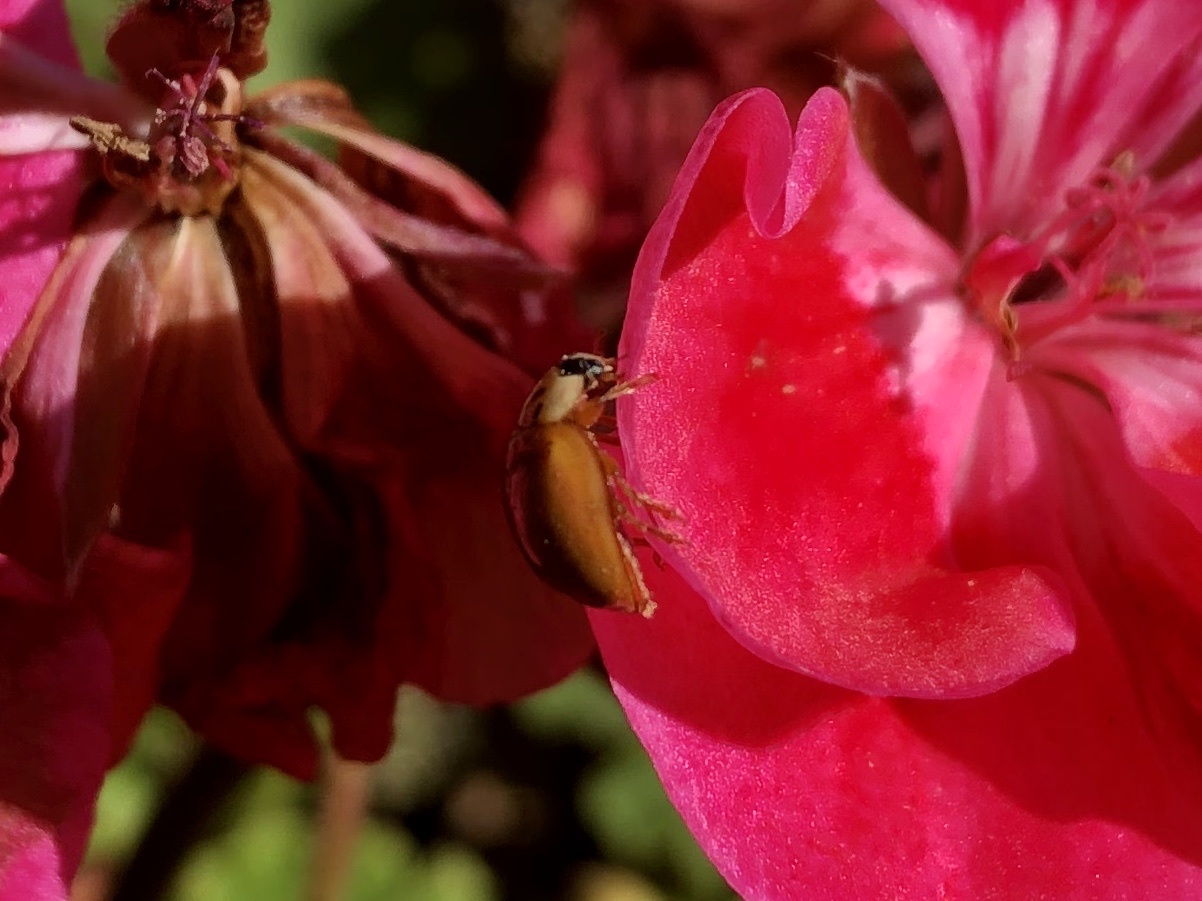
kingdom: Animalia
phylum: Arthropoda
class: Insecta
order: Coleoptera
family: Coccinellidae
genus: Harmonia
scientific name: Harmonia axyridis
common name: Harlequin ladybird
